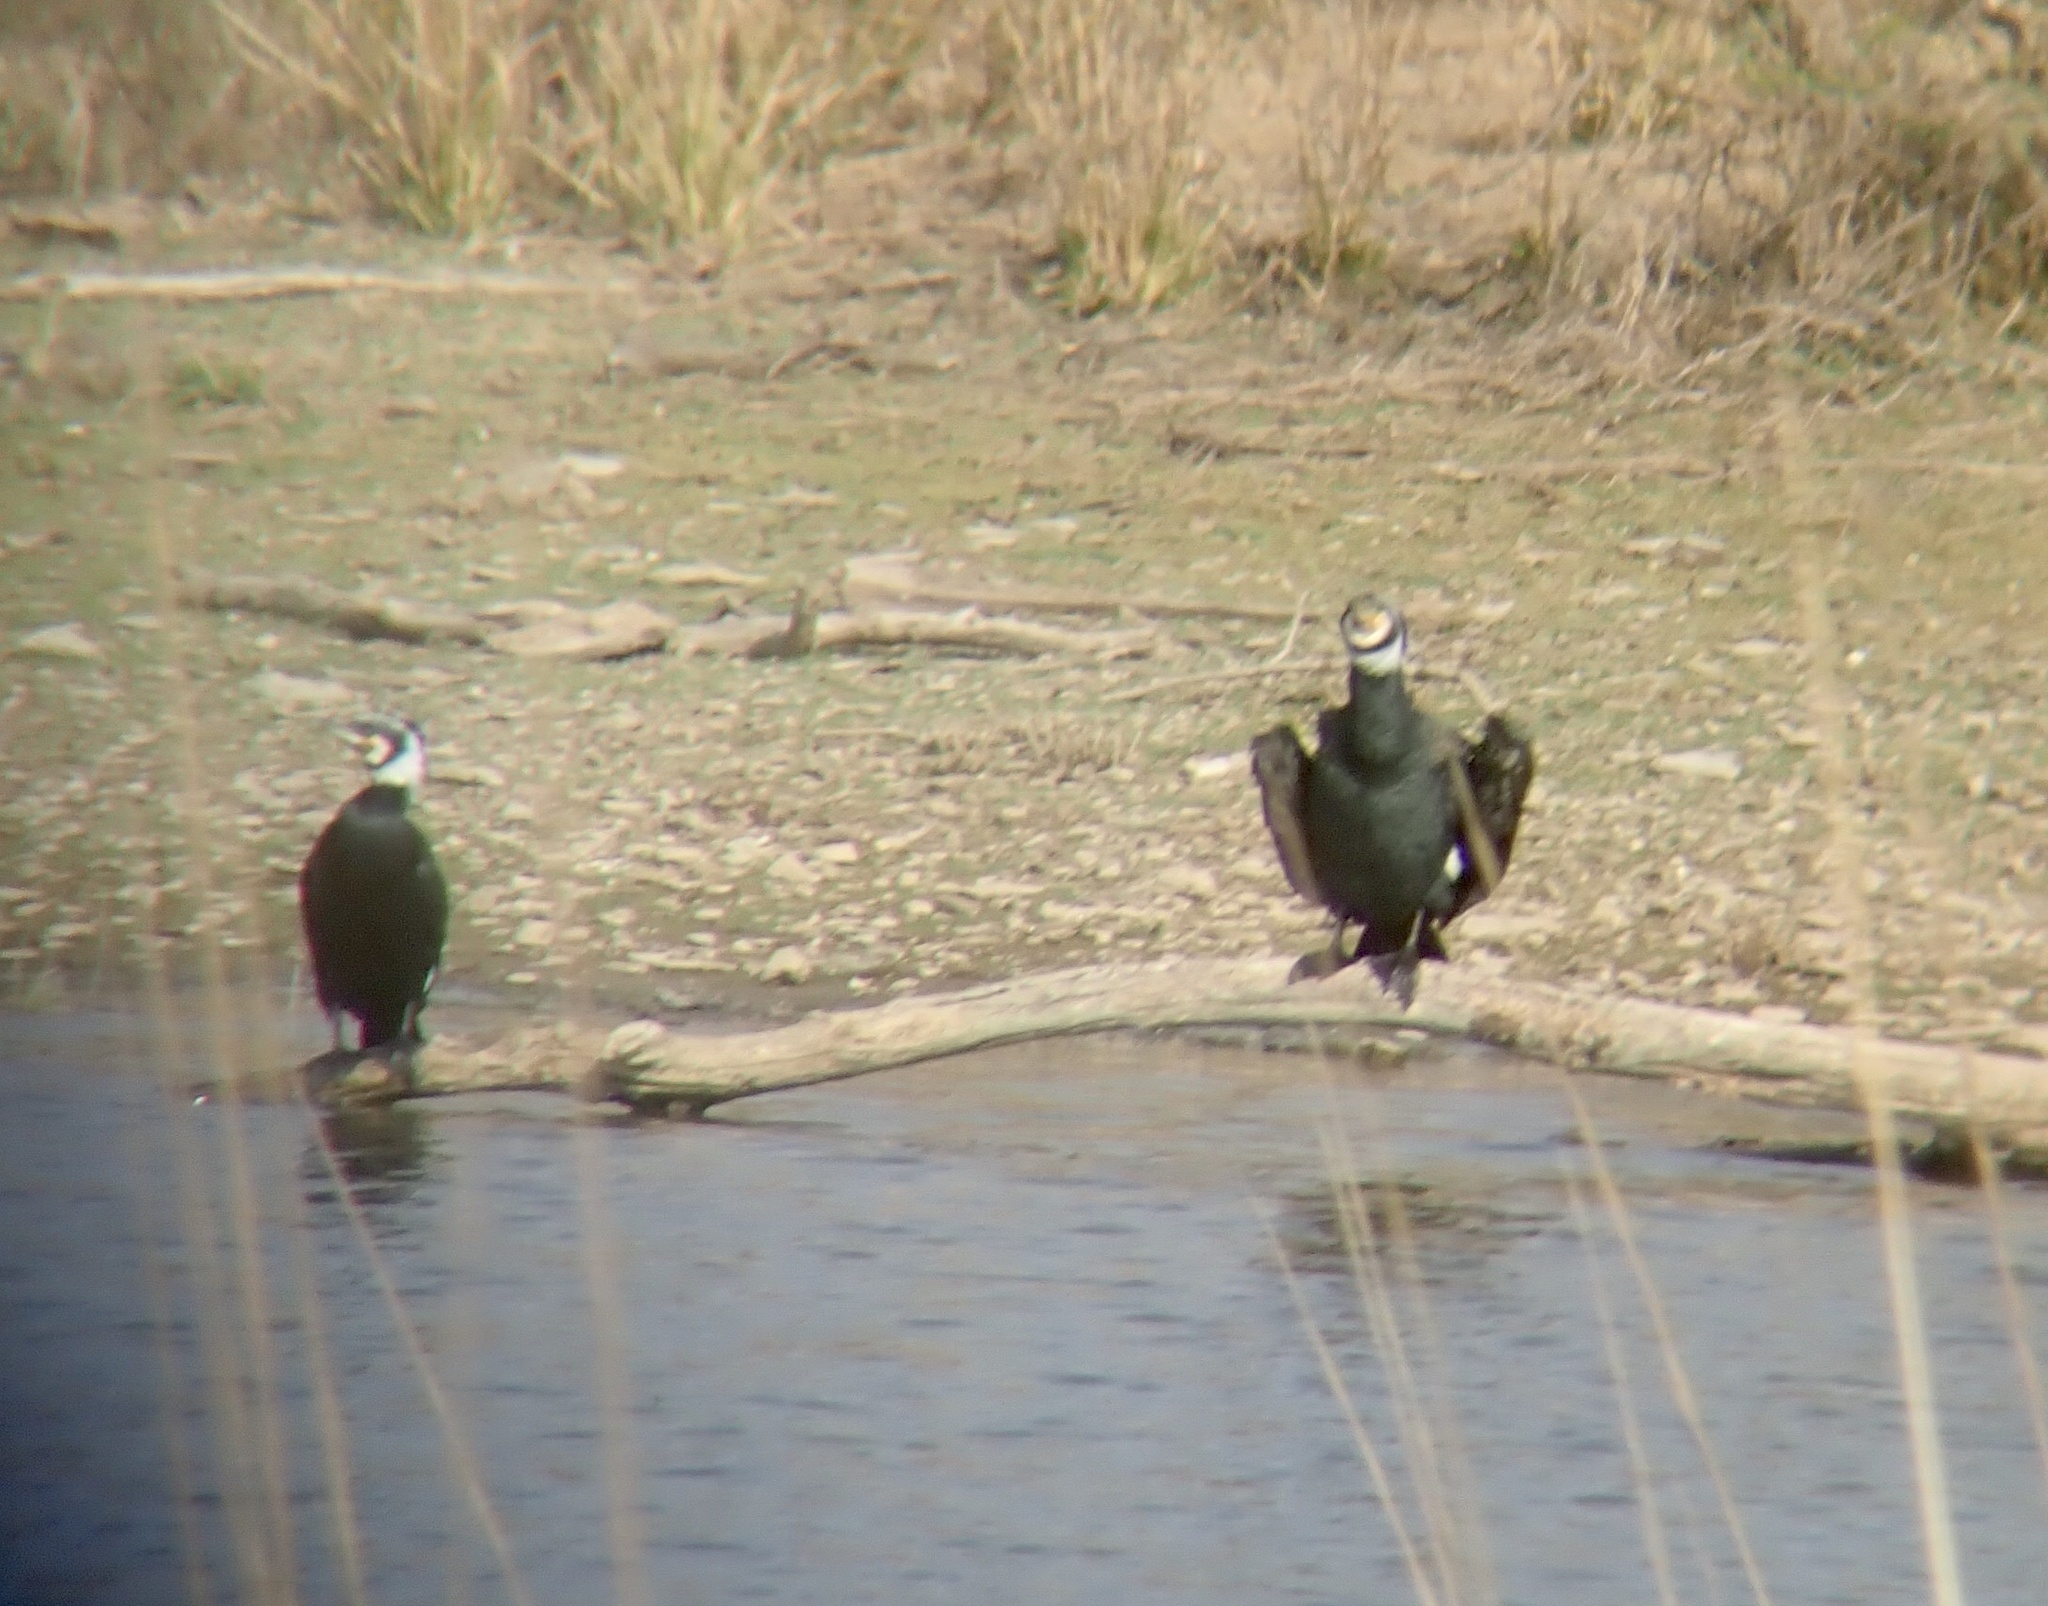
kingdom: Animalia
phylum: Chordata
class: Aves
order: Suliformes
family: Phalacrocoracidae
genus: Phalacrocorax
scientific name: Phalacrocorax carbo
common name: Great cormorant
